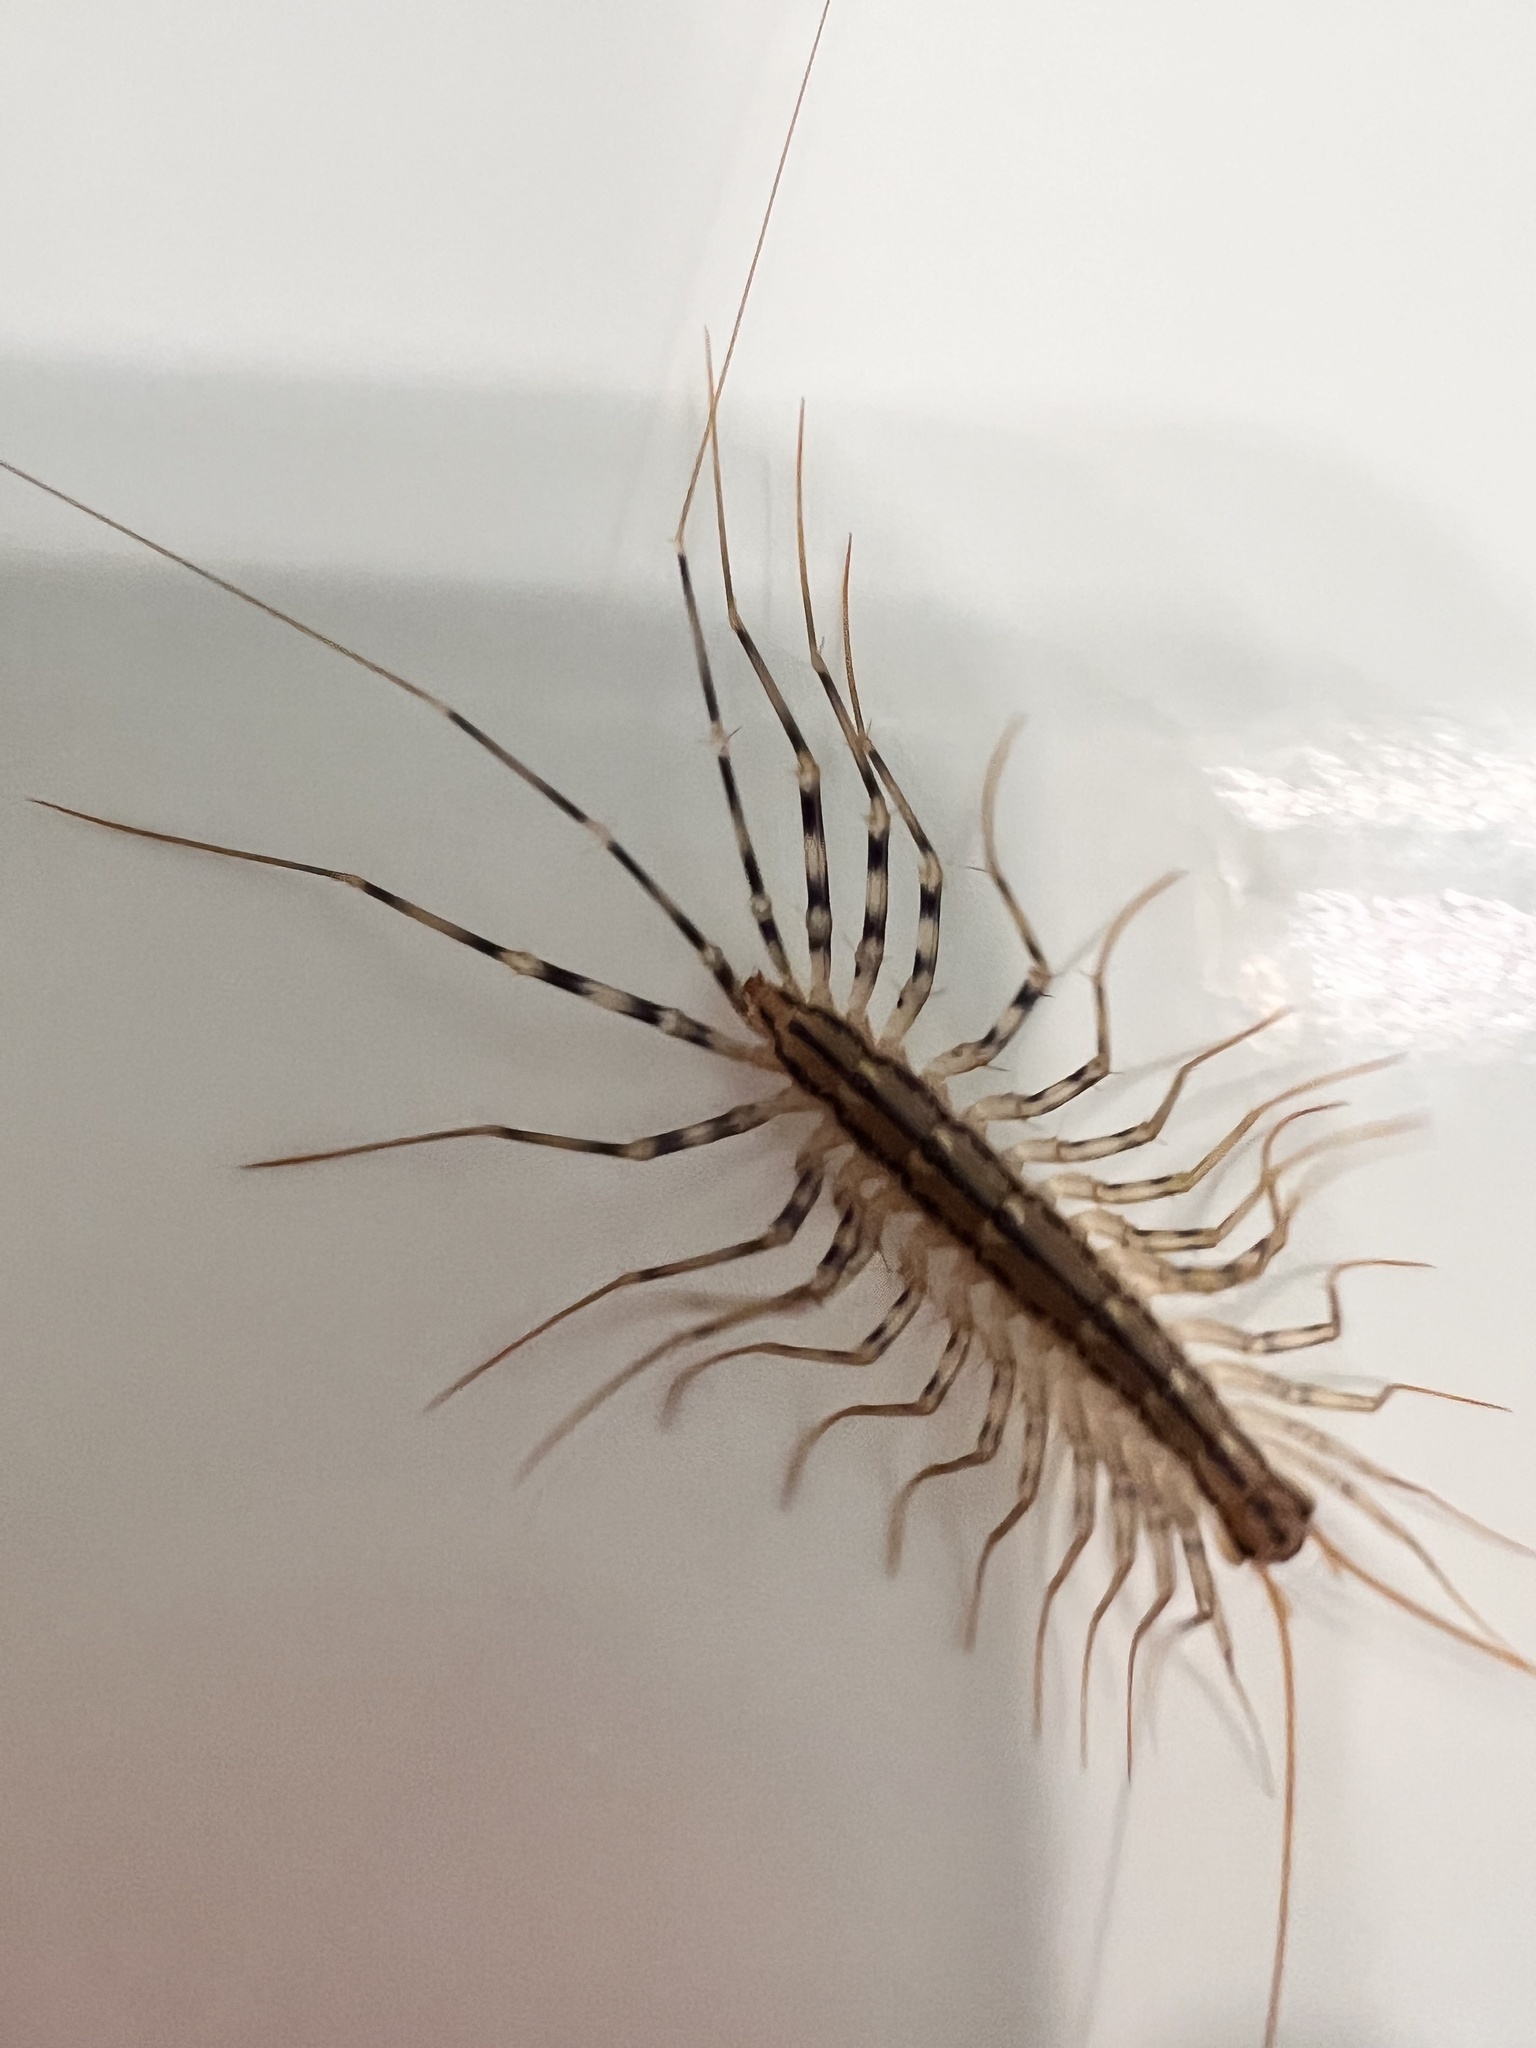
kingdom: Animalia
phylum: Arthropoda
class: Chilopoda
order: Scutigeromorpha
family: Scutigeridae
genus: Scutigera
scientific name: Scutigera coleoptrata
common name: House centipede
